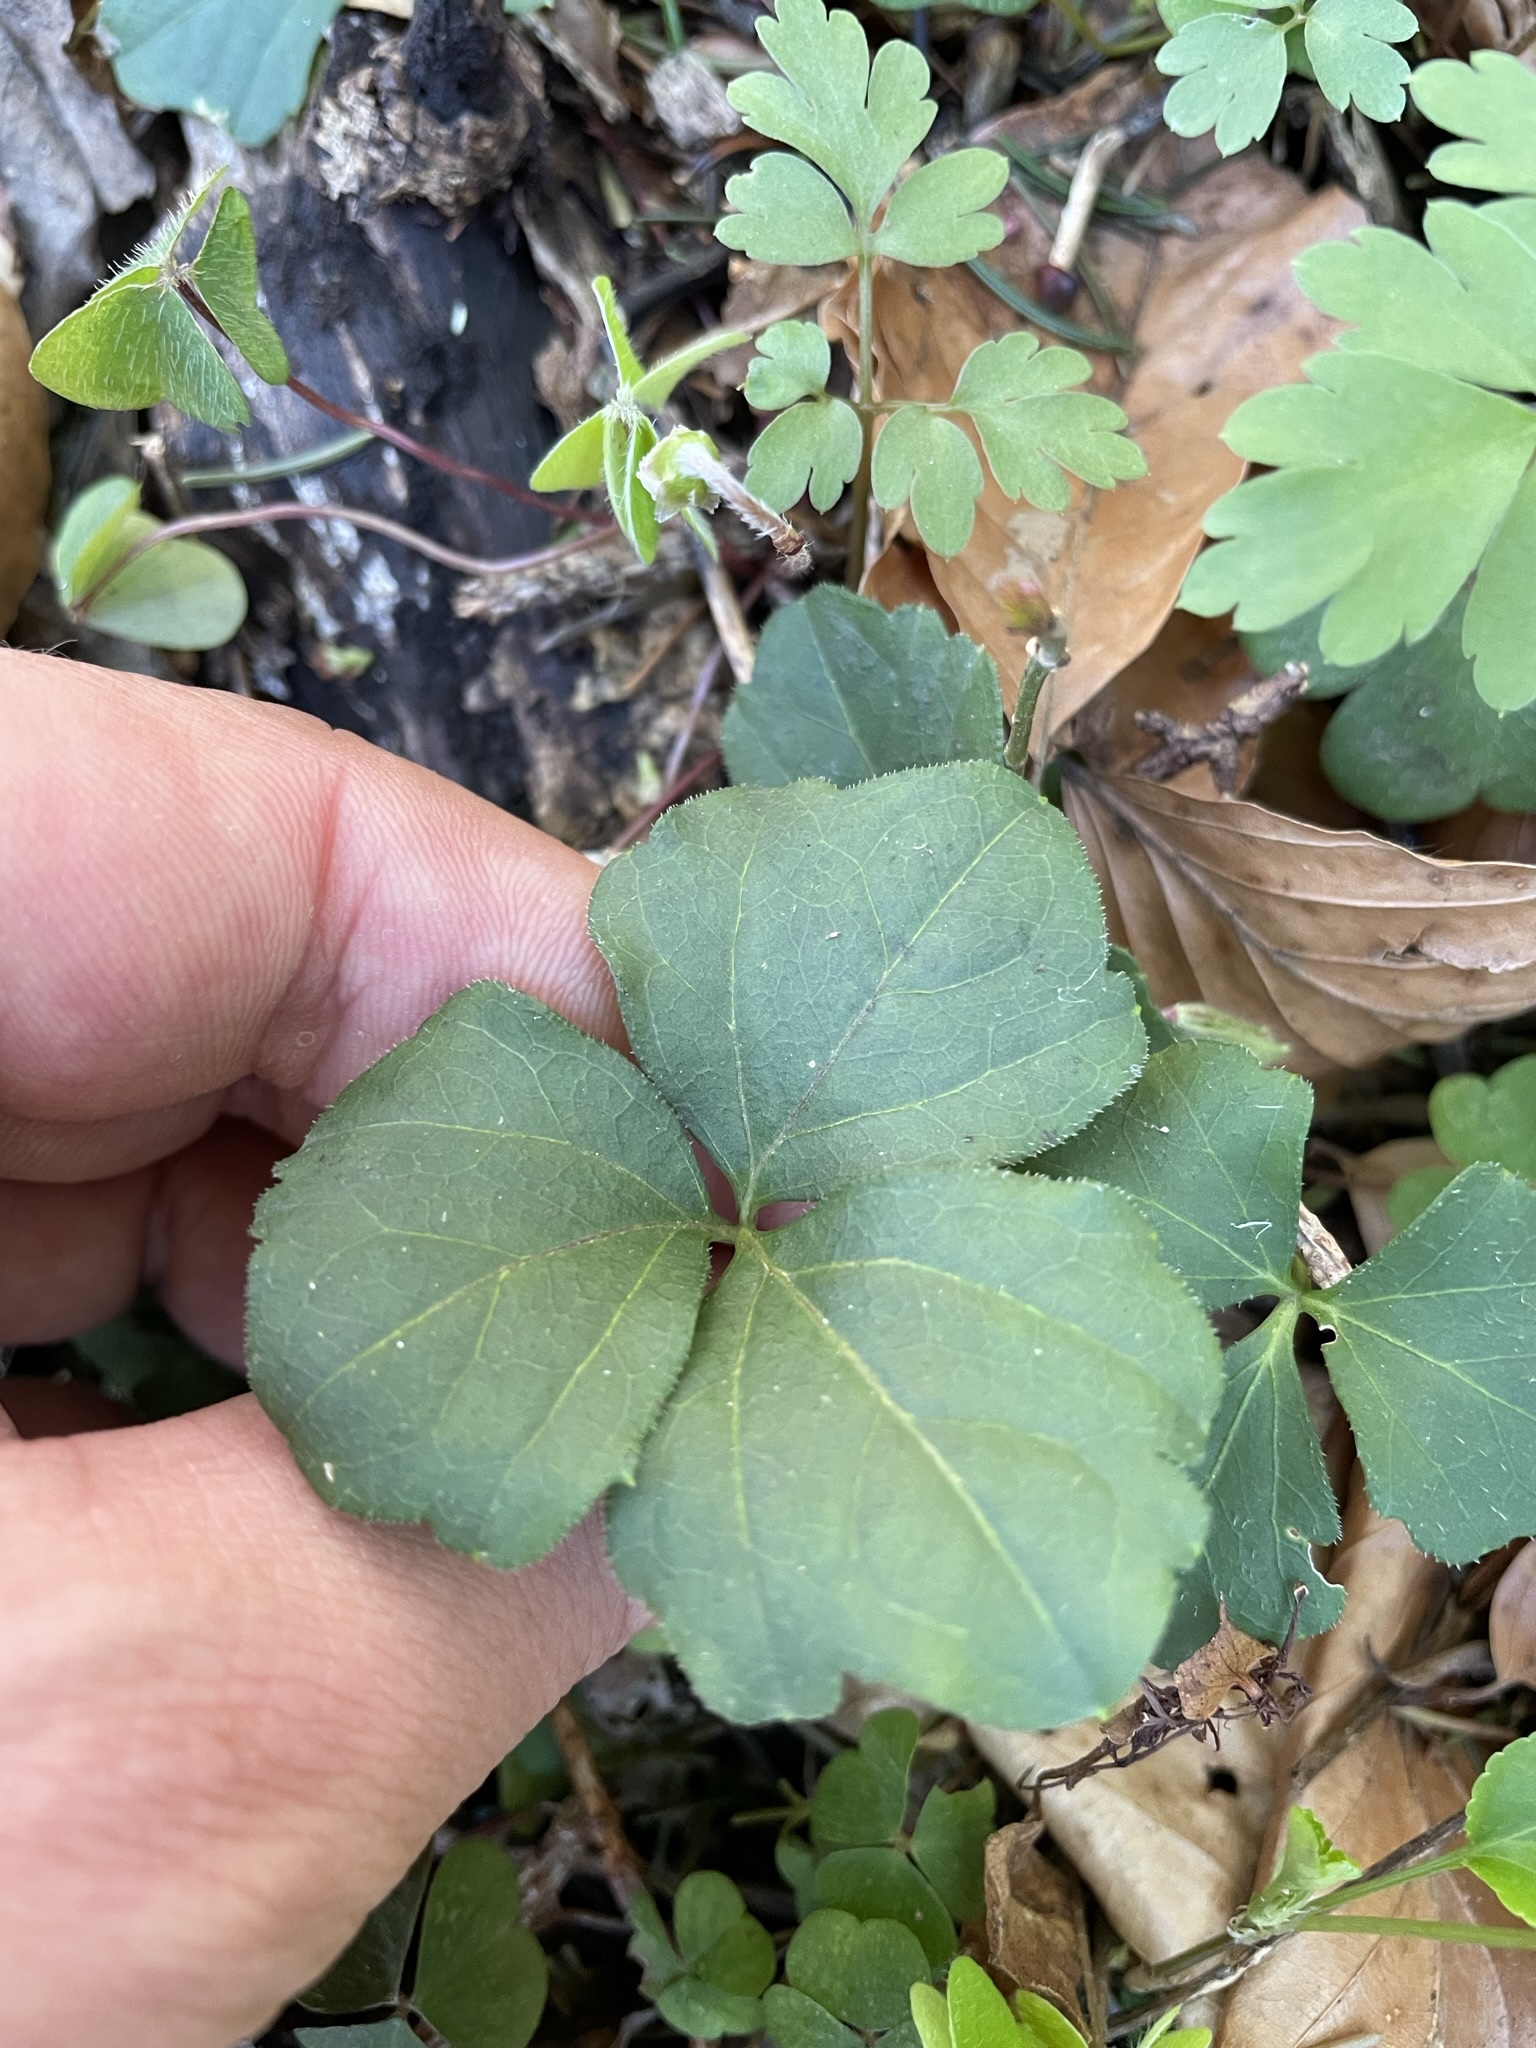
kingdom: Plantae
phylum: Tracheophyta
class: Magnoliopsida
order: Brassicales
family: Brassicaceae
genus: Cardamine
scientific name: Cardamine trifolia
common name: Trefoil cress
